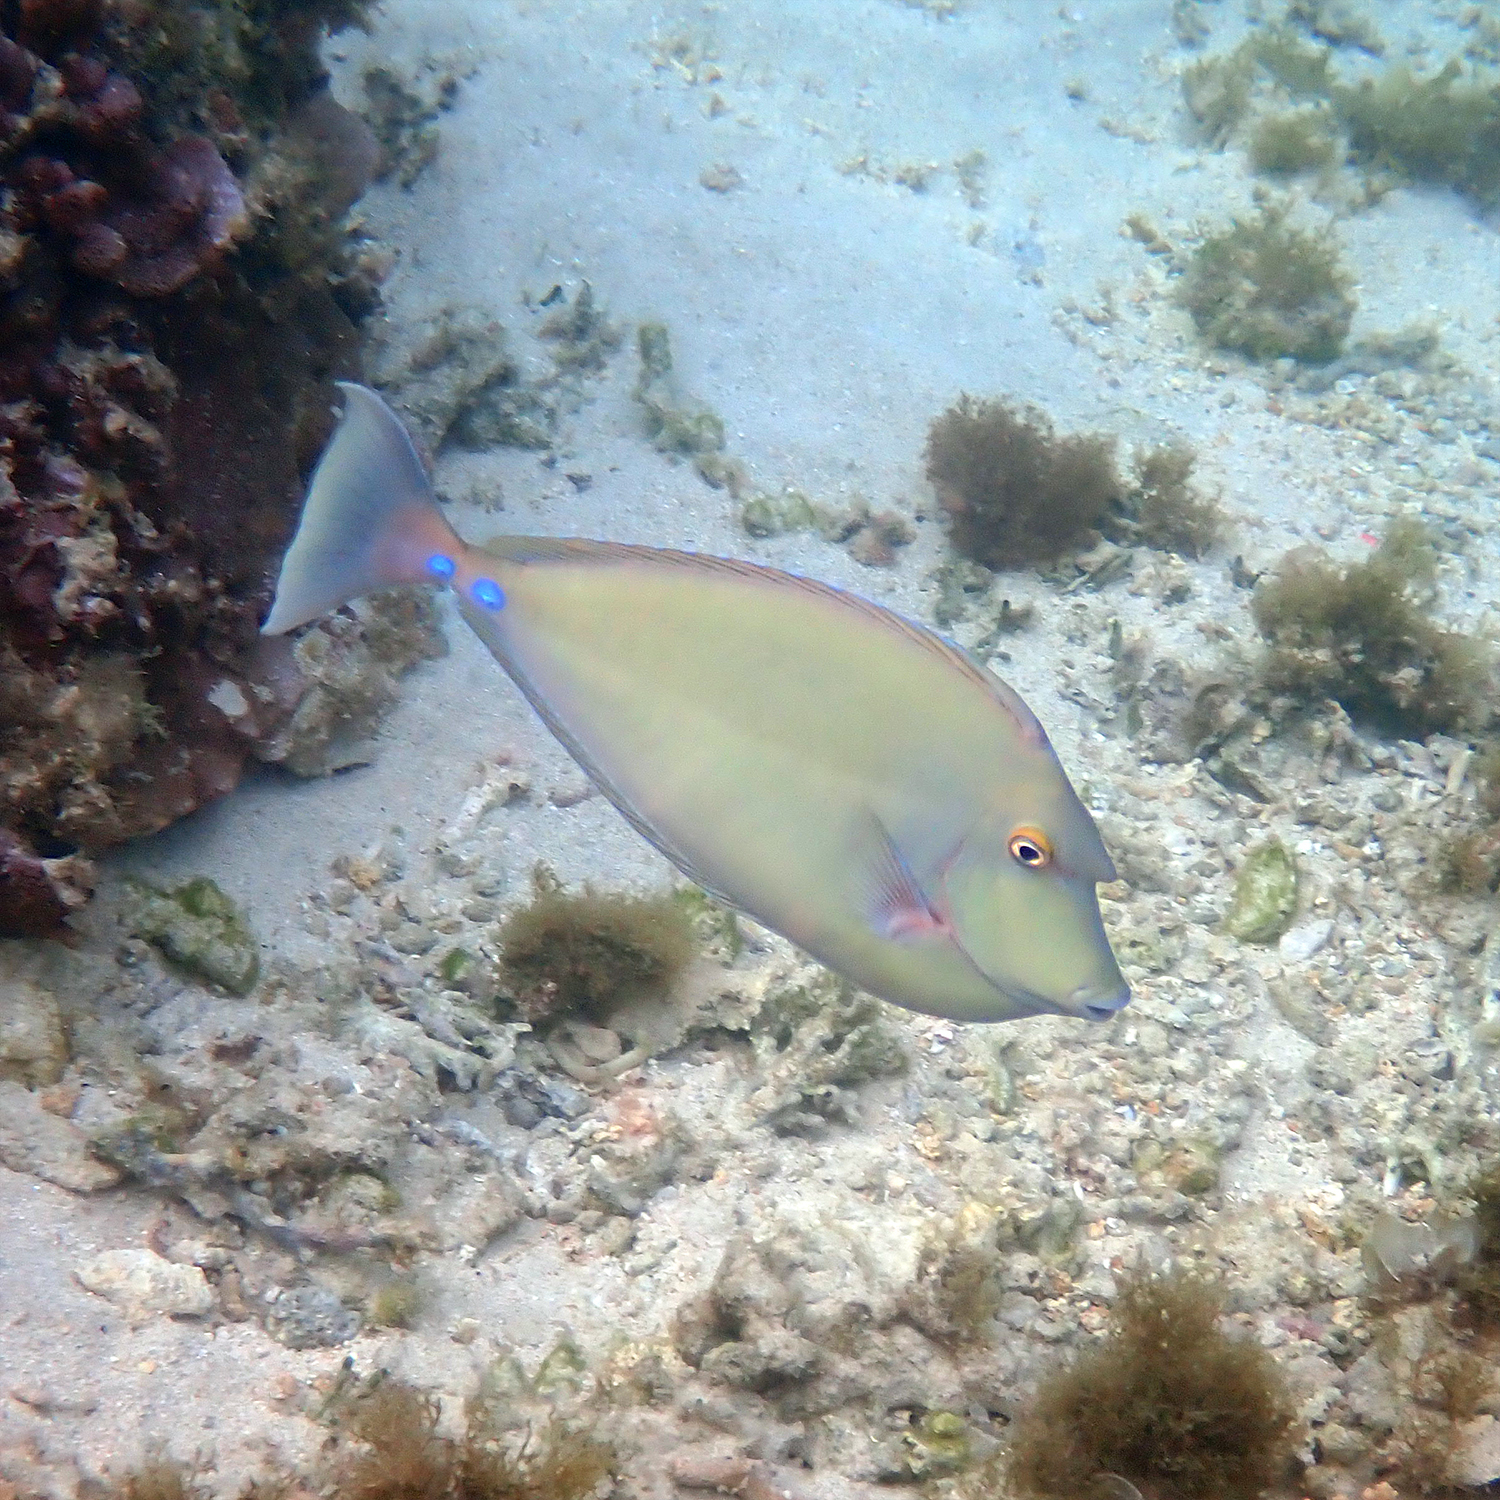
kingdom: Animalia
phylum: Chordata
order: Perciformes
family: Acanthuridae
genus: Naso
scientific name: Naso unicornis
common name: Bluespine unicornfish
